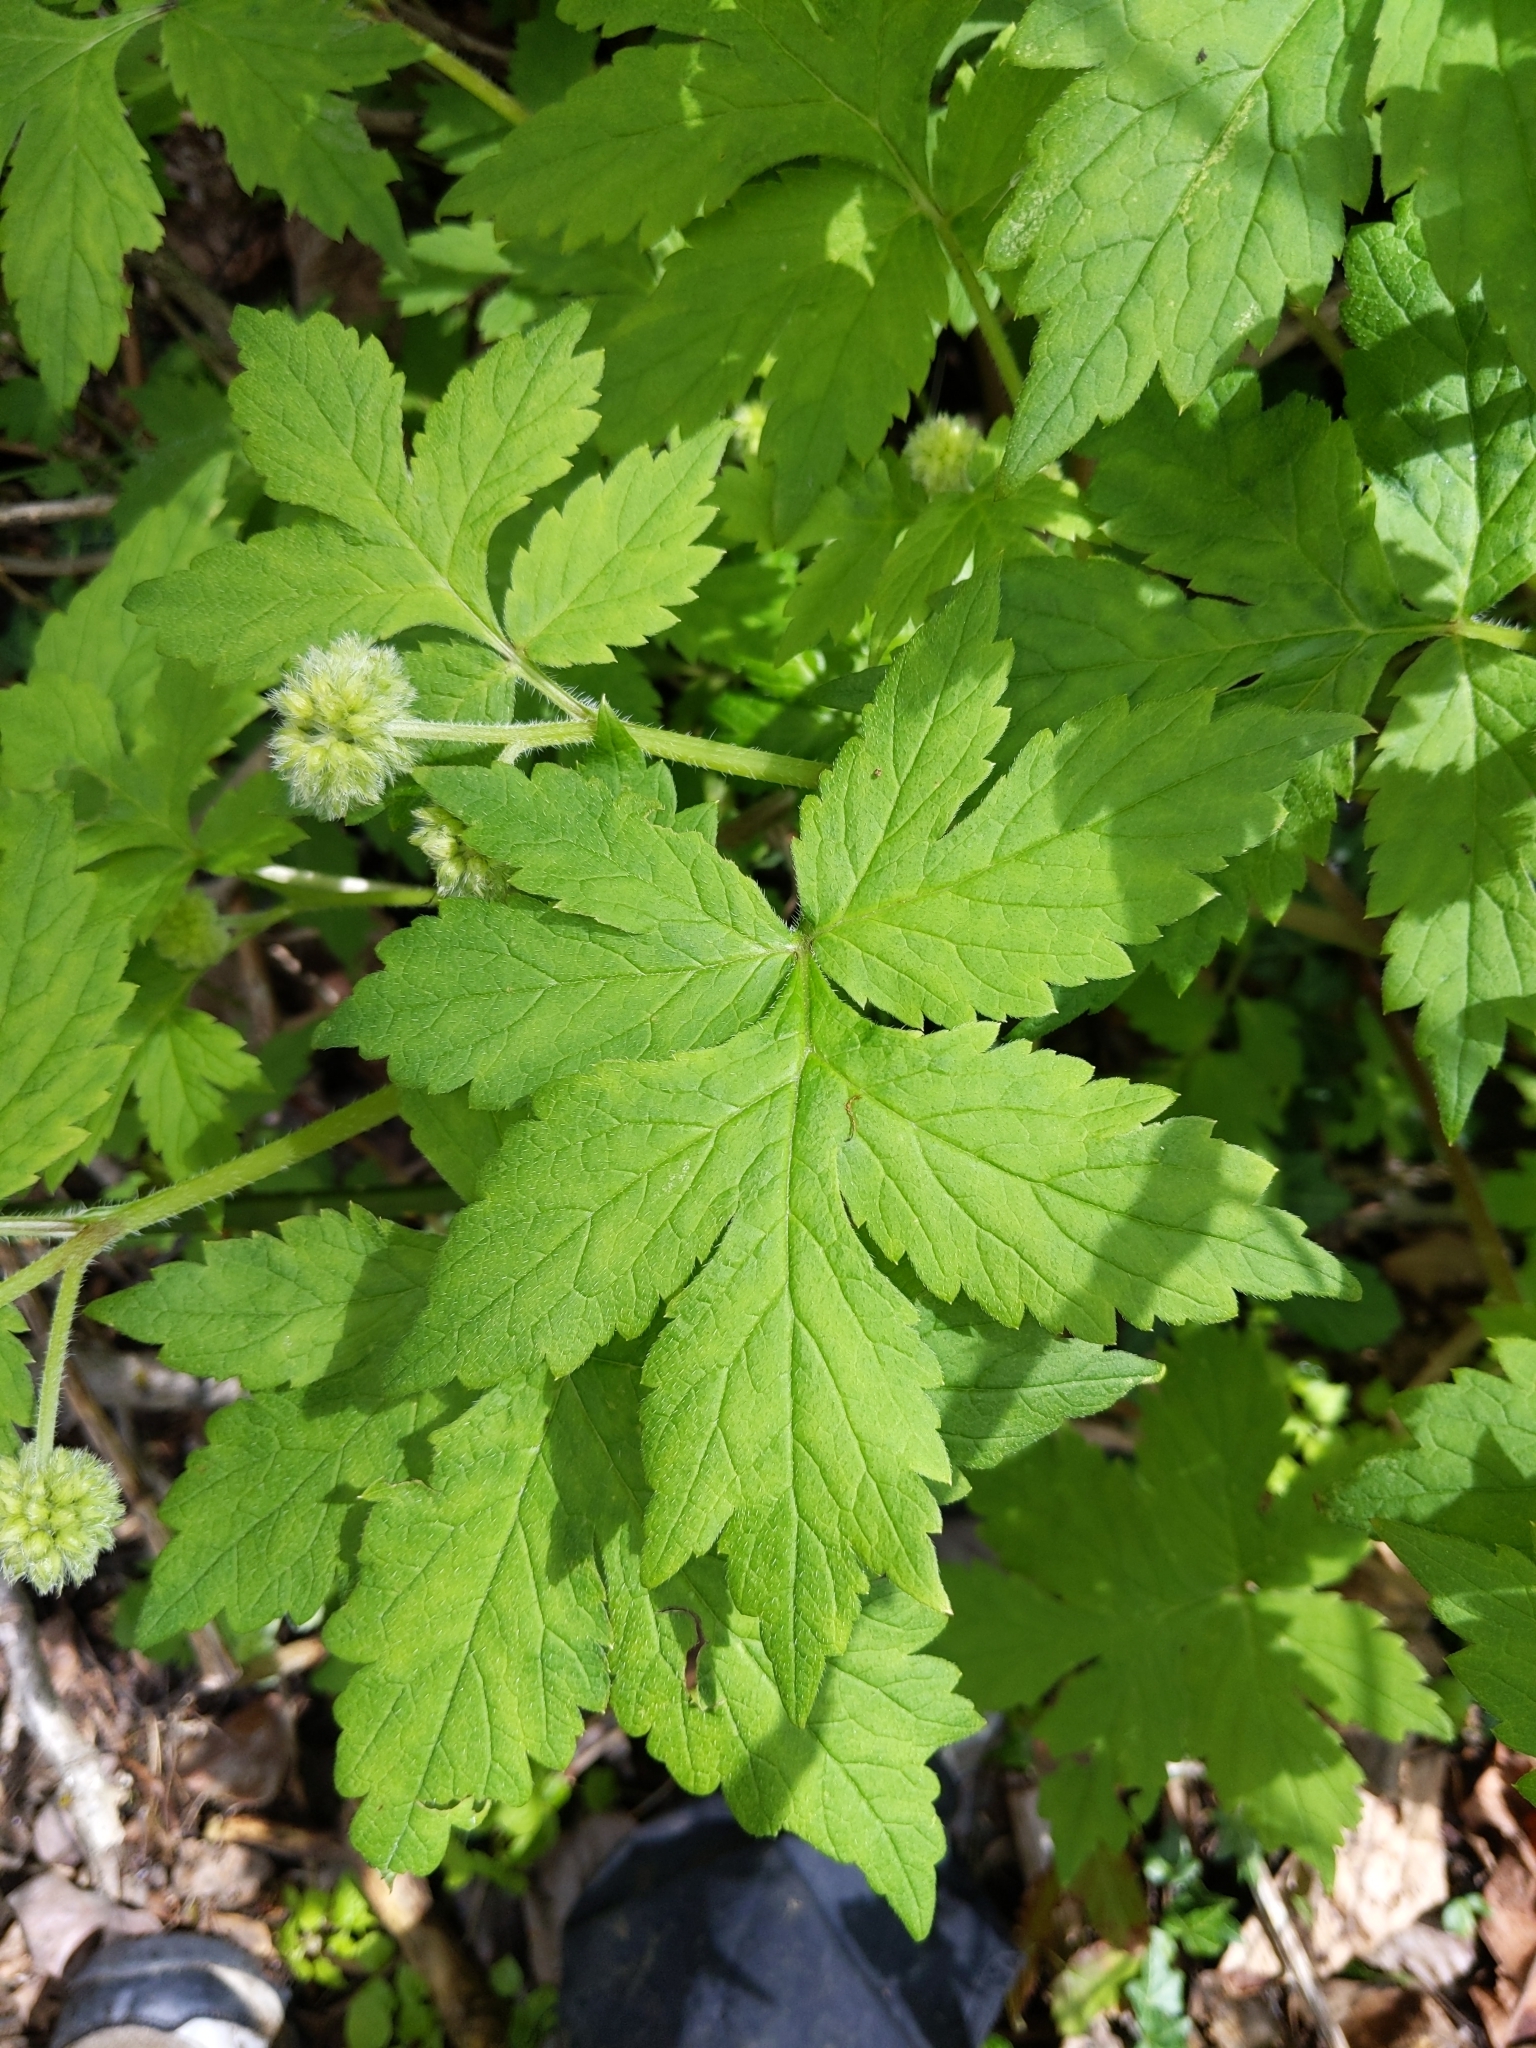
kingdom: Plantae
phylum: Tracheophyta
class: Magnoliopsida
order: Boraginales
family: Hydrophyllaceae
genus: Hydrophyllum
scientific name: Hydrophyllum tenuipes
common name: Pacific waterleaf
